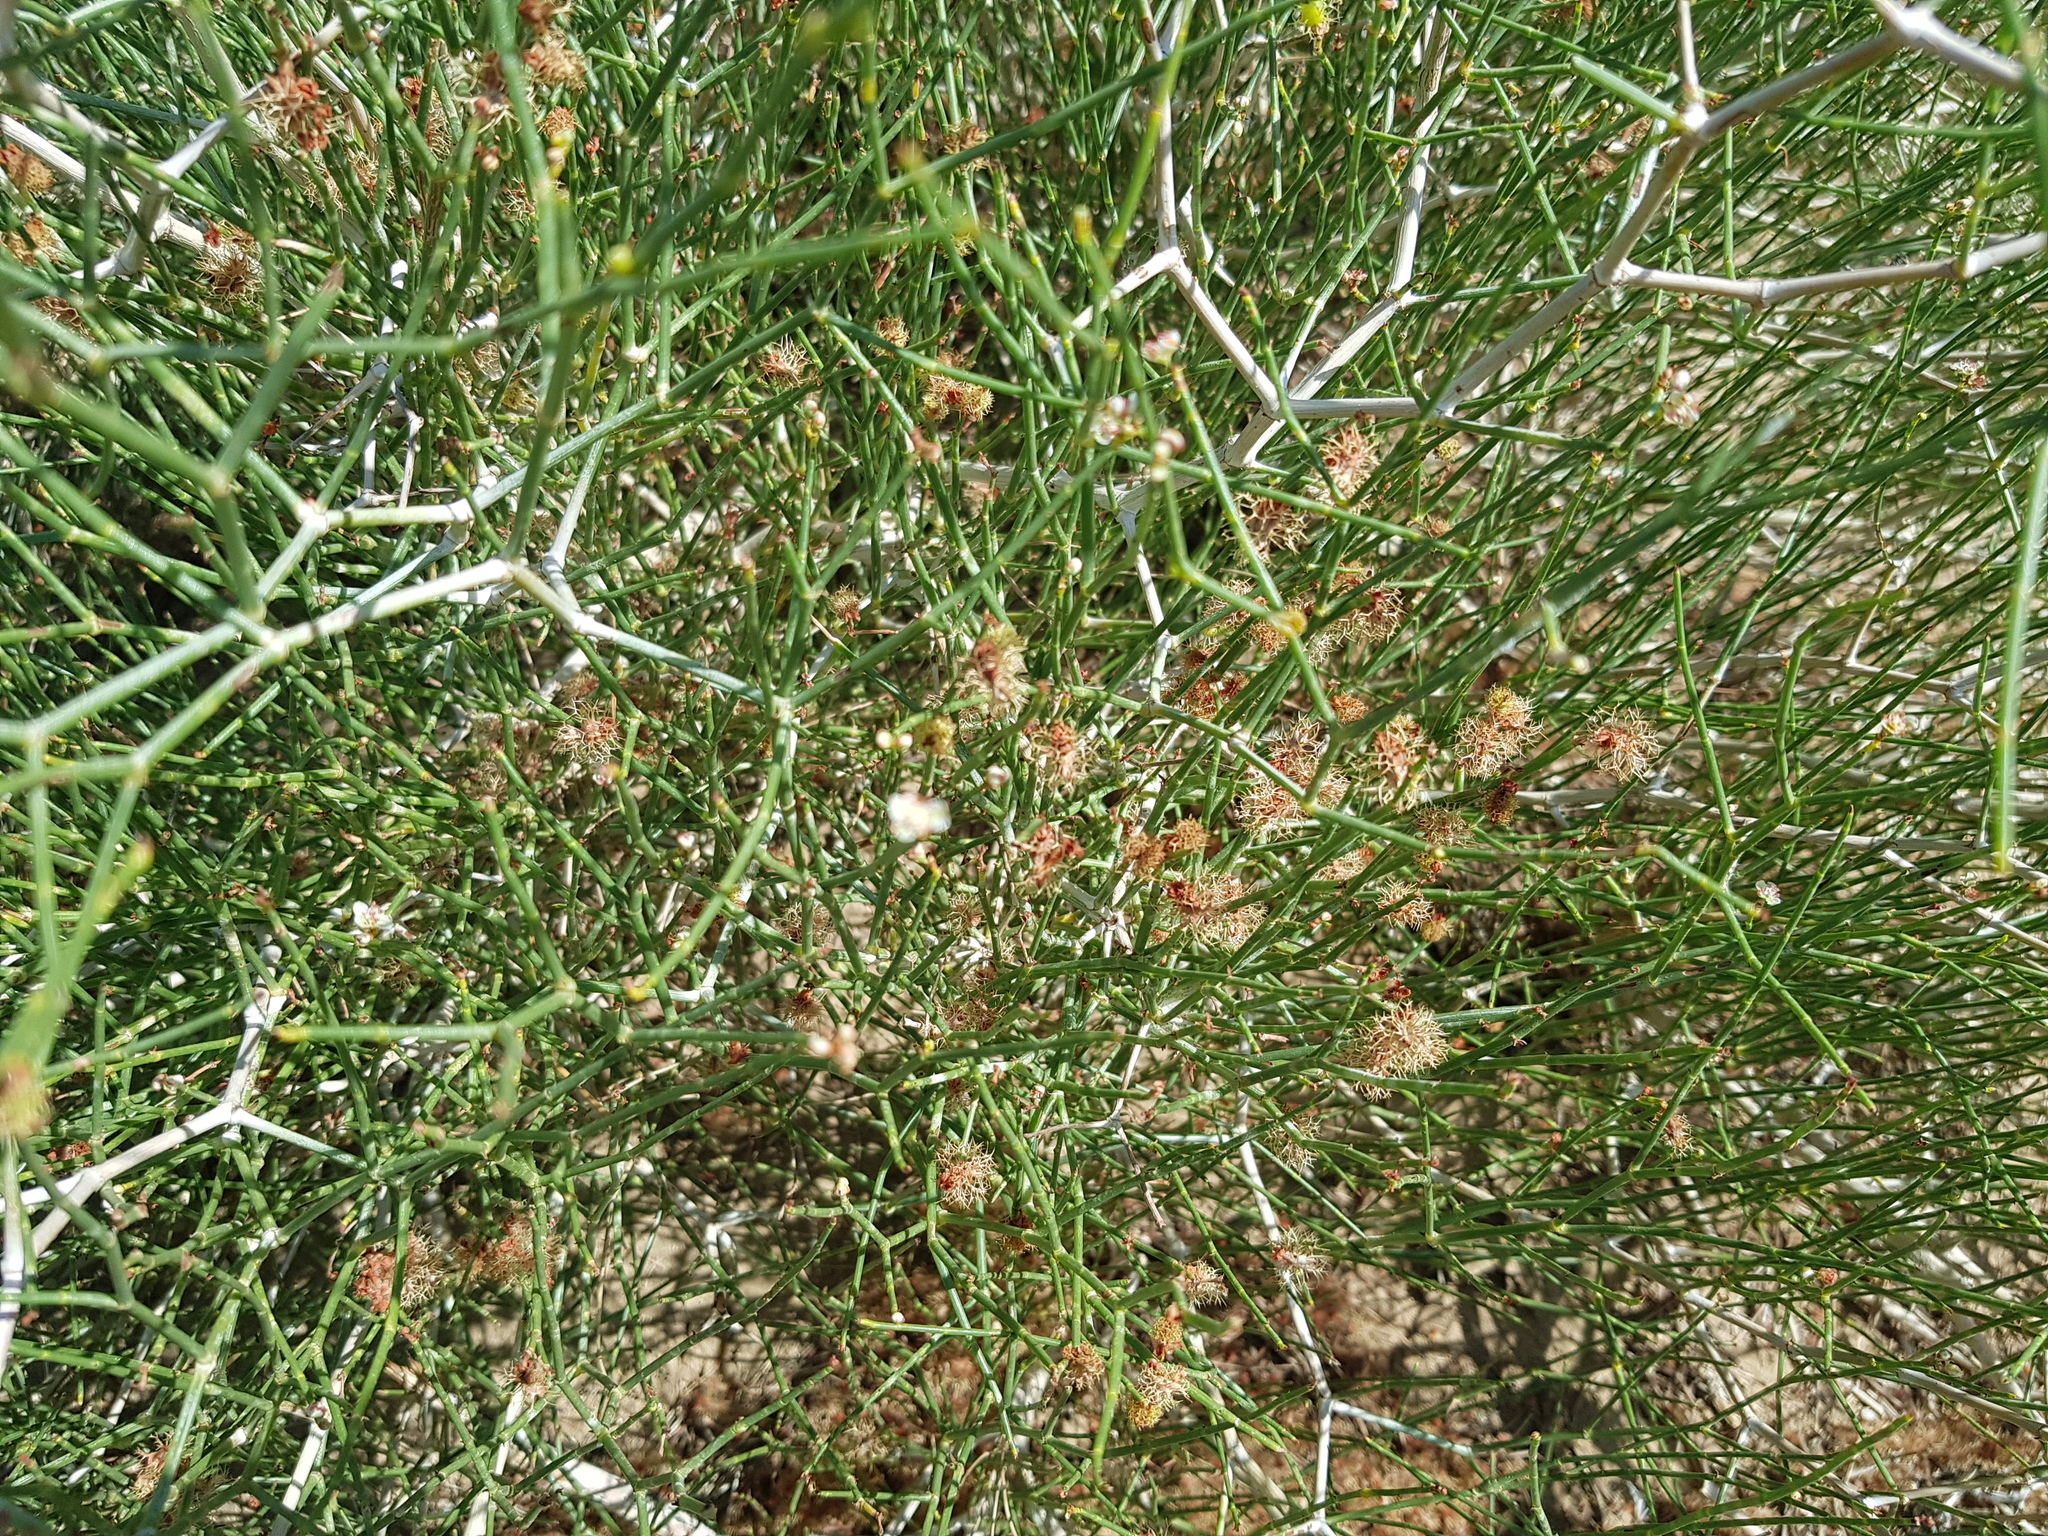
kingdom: Plantae
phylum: Tracheophyta
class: Magnoliopsida
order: Caryophyllales
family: Polygonaceae
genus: Calligonum
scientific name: Calligonum mongolicum
